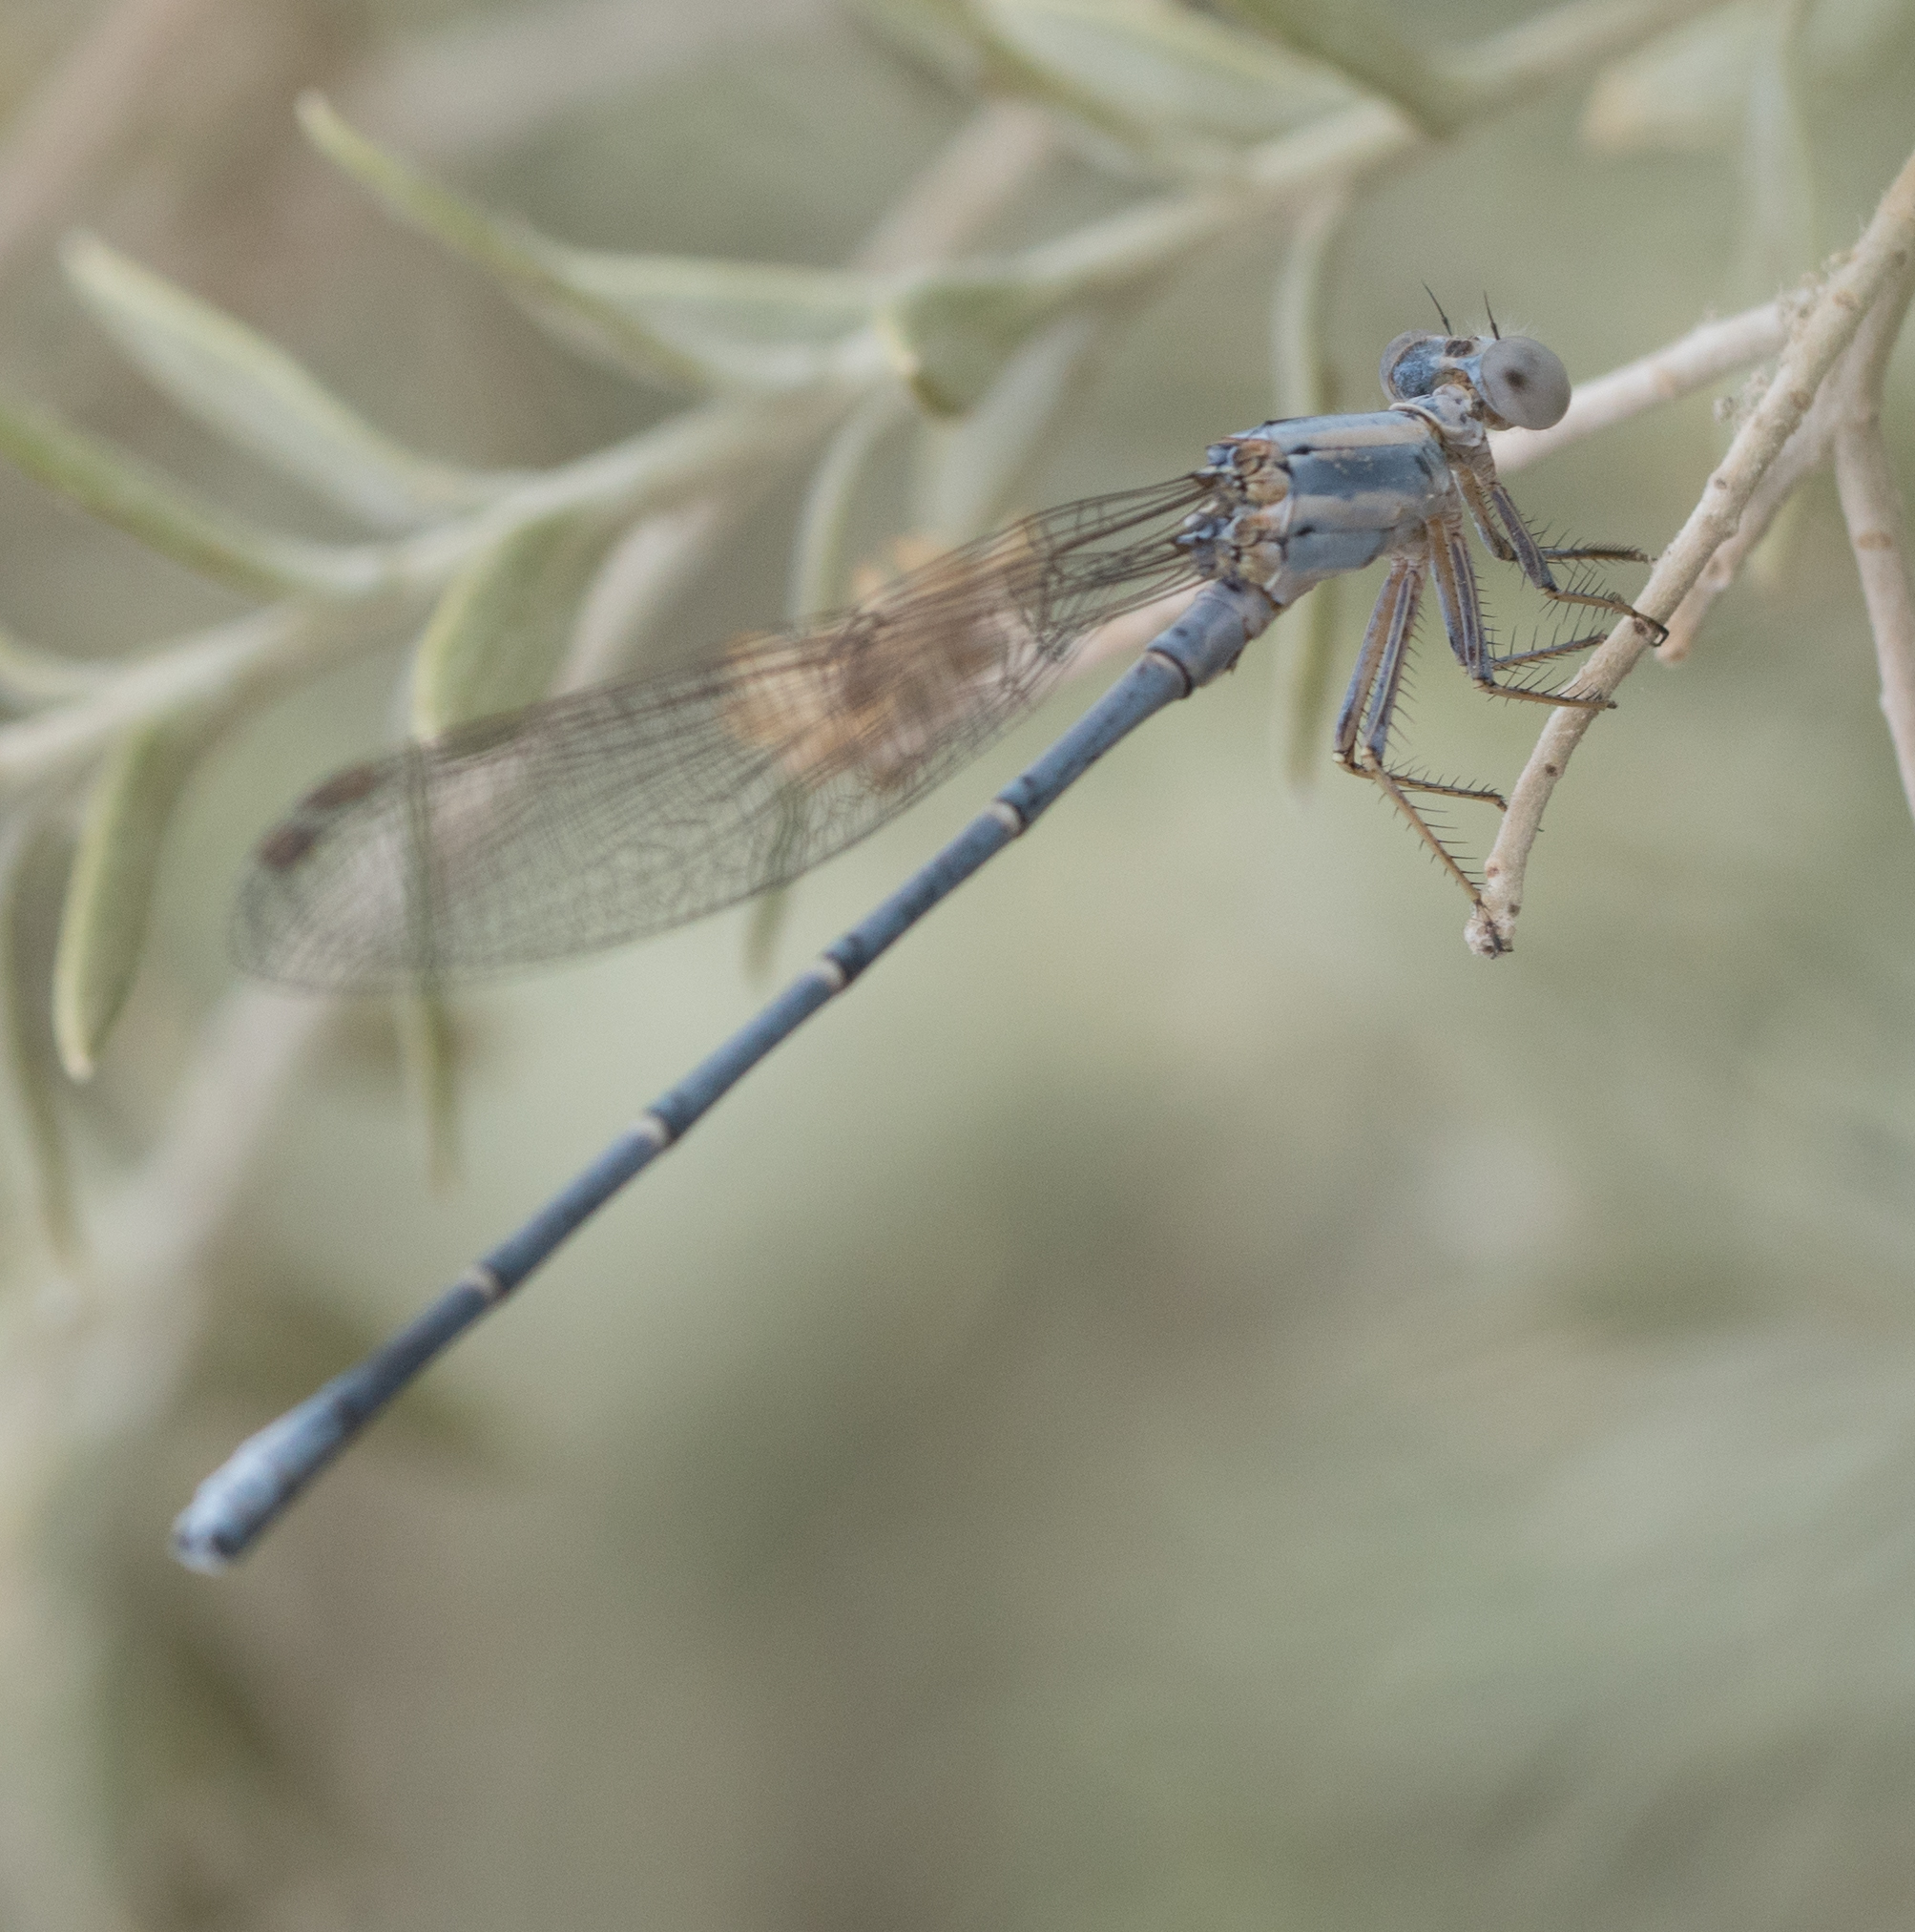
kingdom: Animalia
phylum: Arthropoda
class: Insecta
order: Odonata
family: Coenagrionidae
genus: Argia
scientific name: Argia moesta
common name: Powdered dancer
